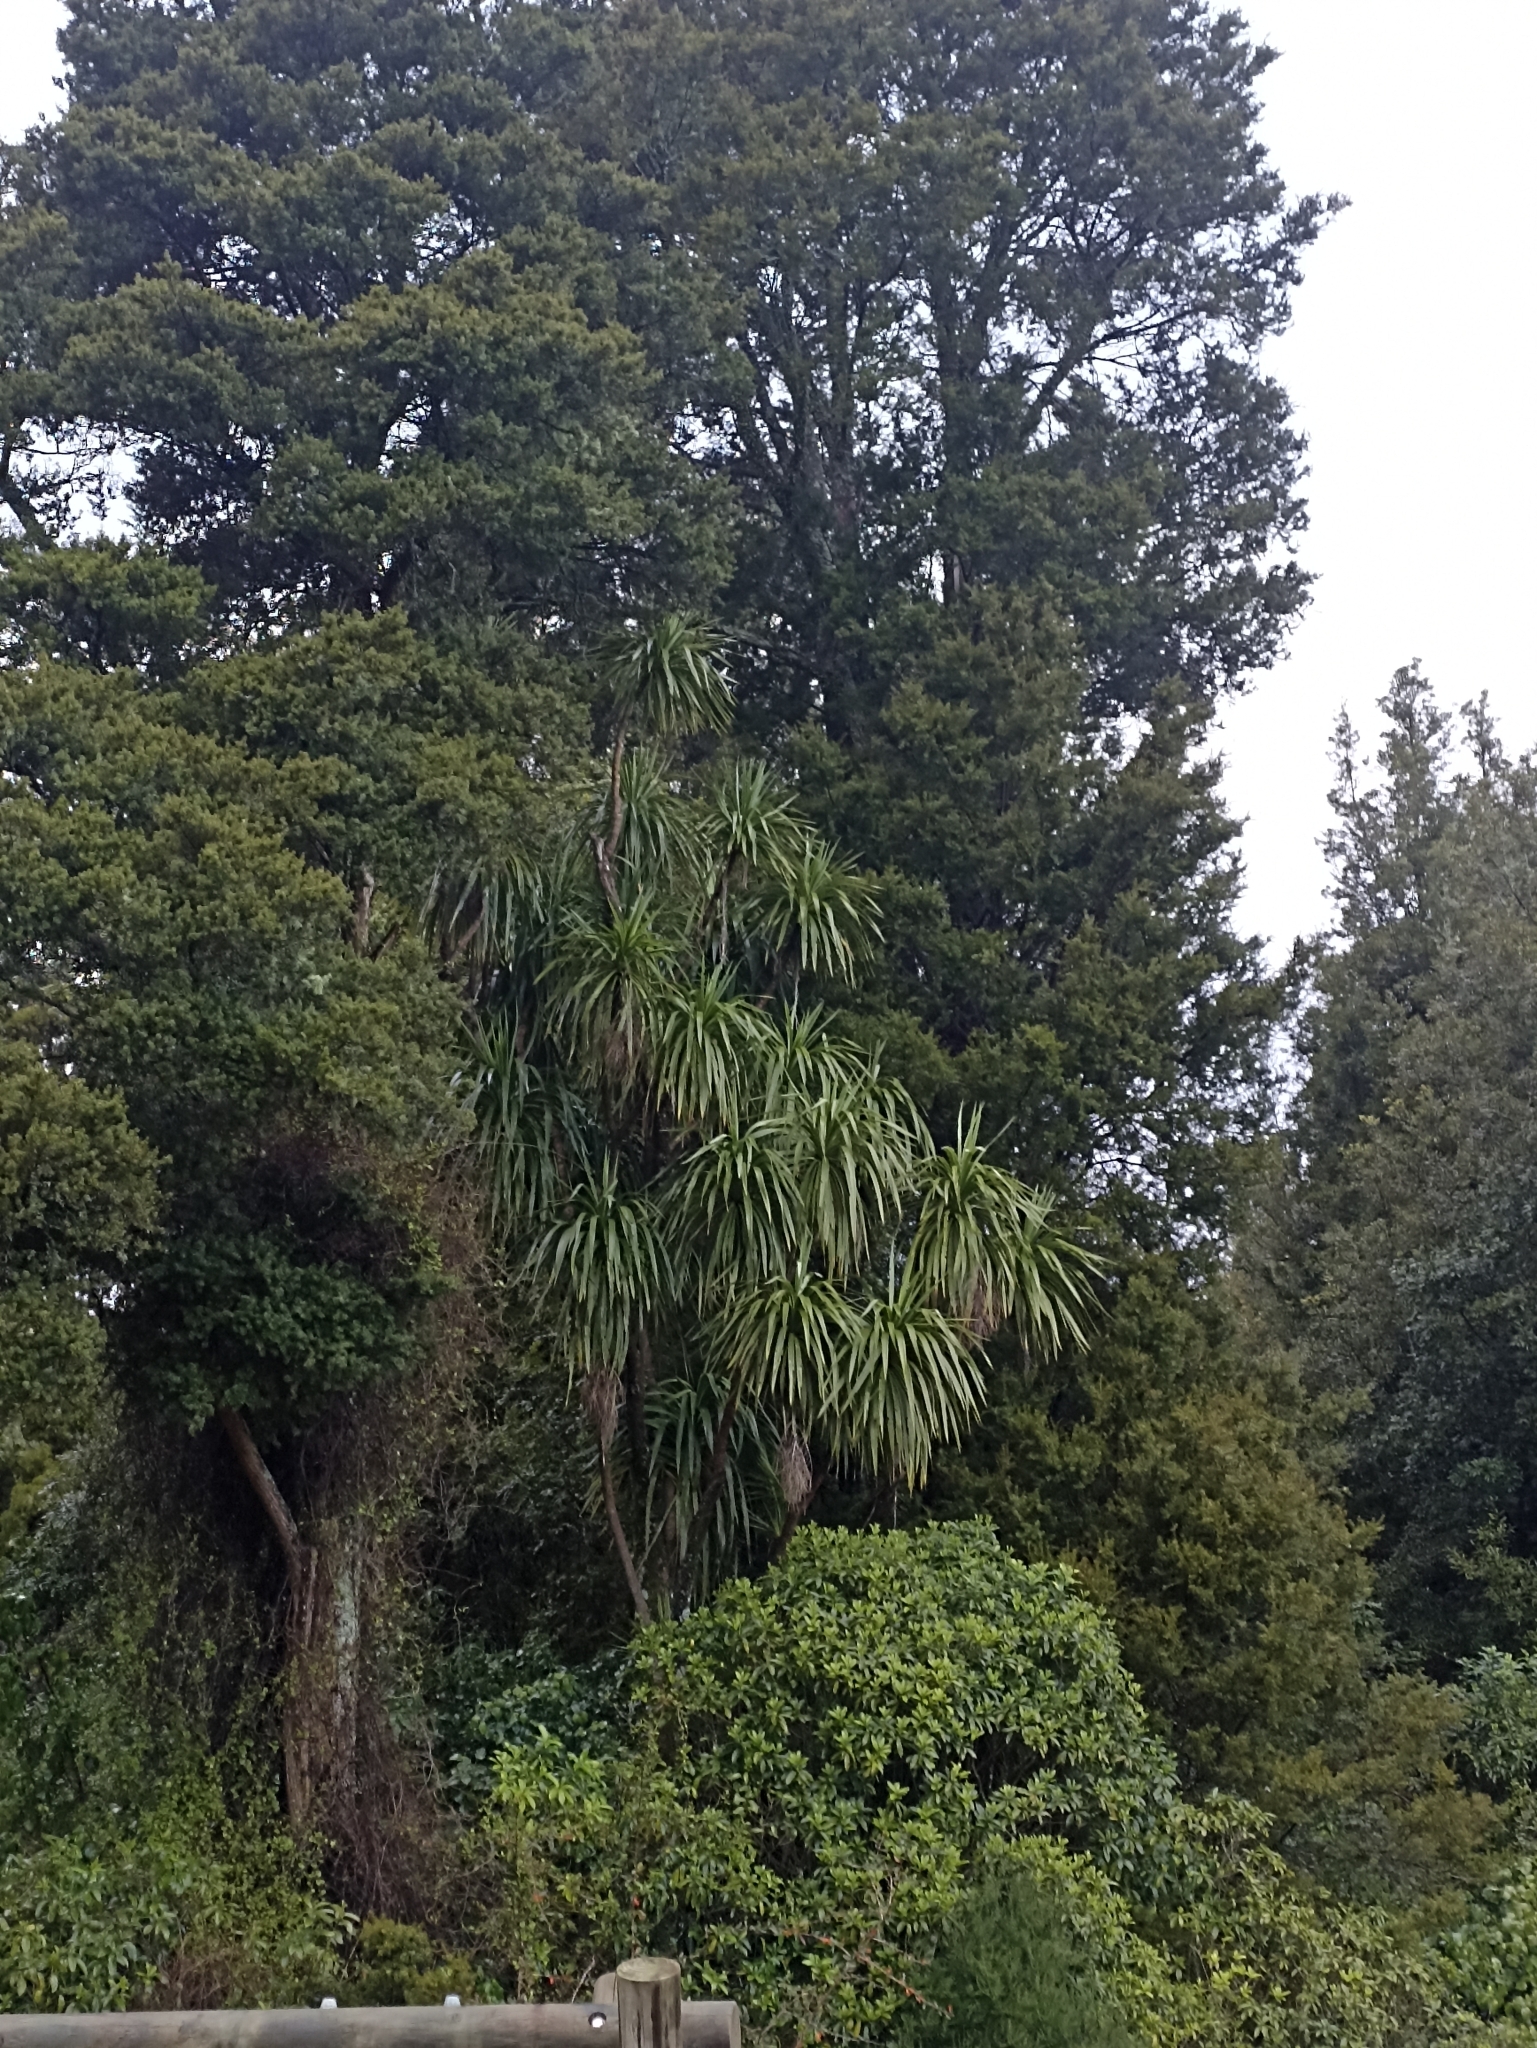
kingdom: Plantae
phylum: Tracheophyta
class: Liliopsida
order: Asparagales
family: Asparagaceae
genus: Cordyline
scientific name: Cordyline australis
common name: Cabbage-palm
